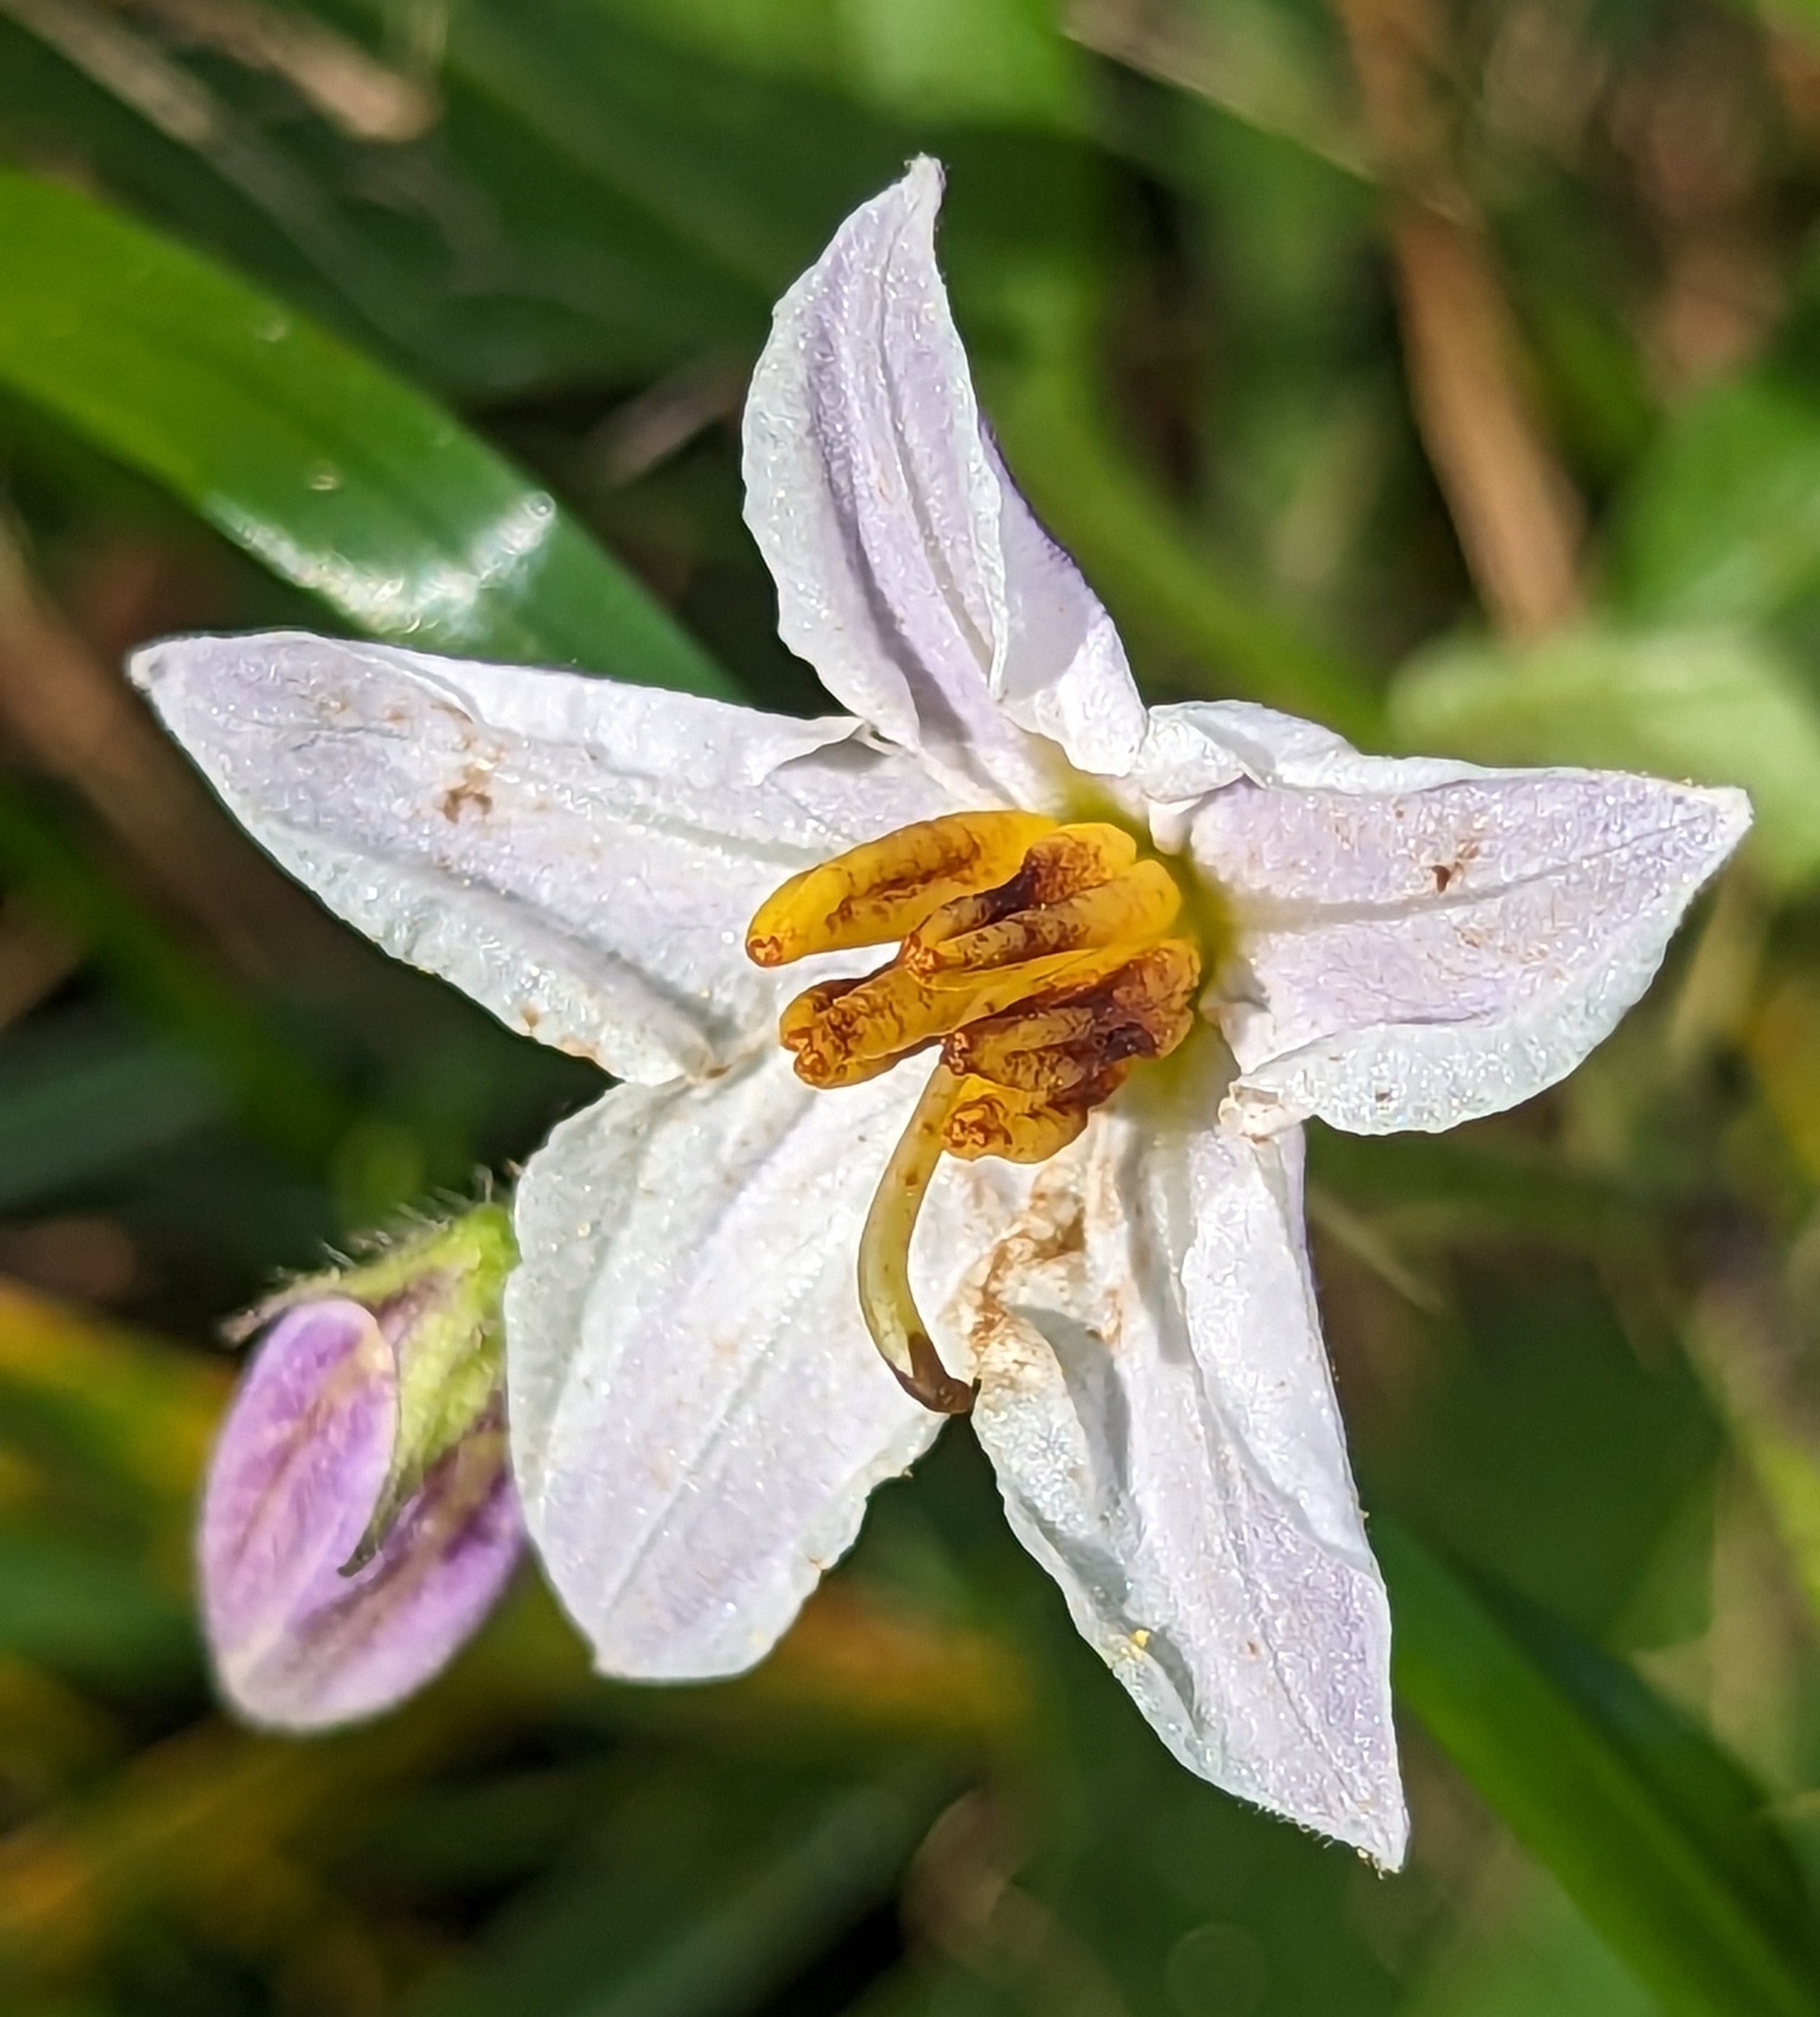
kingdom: Plantae
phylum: Tracheophyta
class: Magnoliopsida
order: Solanales
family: Solanaceae
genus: Solanum
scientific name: Solanum carolinense
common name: Horse-nettle
